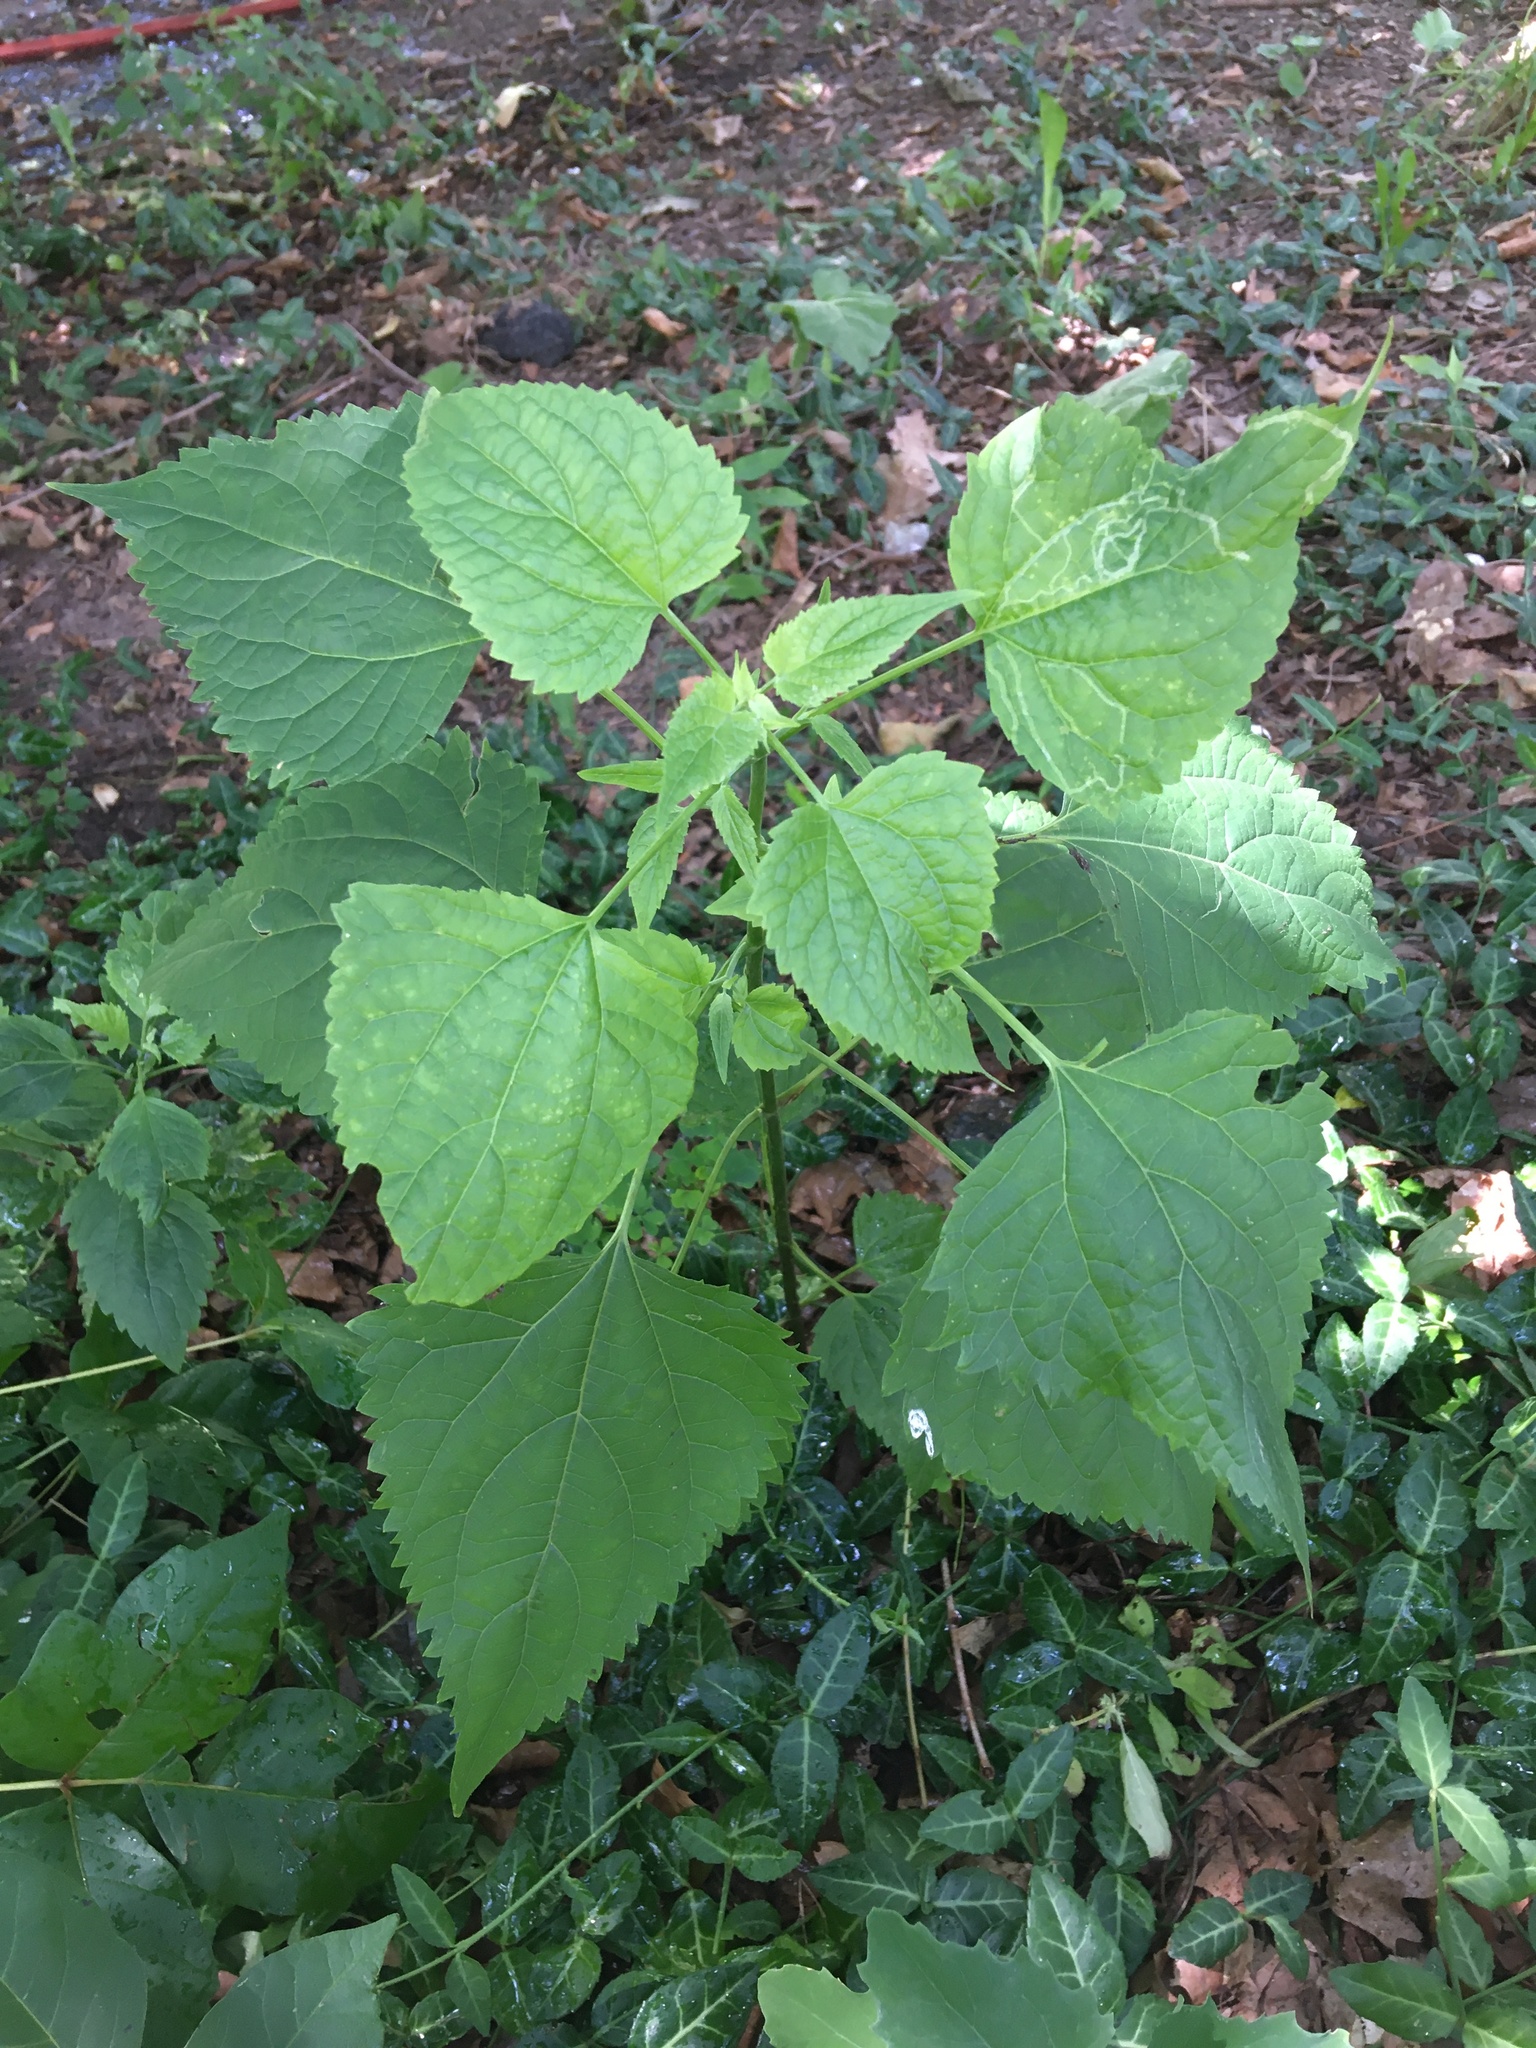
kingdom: Plantae
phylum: Tracheophyta
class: Magnoliopsida
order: Asterales
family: Asteraceae
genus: Ageratina
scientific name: Ageratina altissima
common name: White snakeroot
